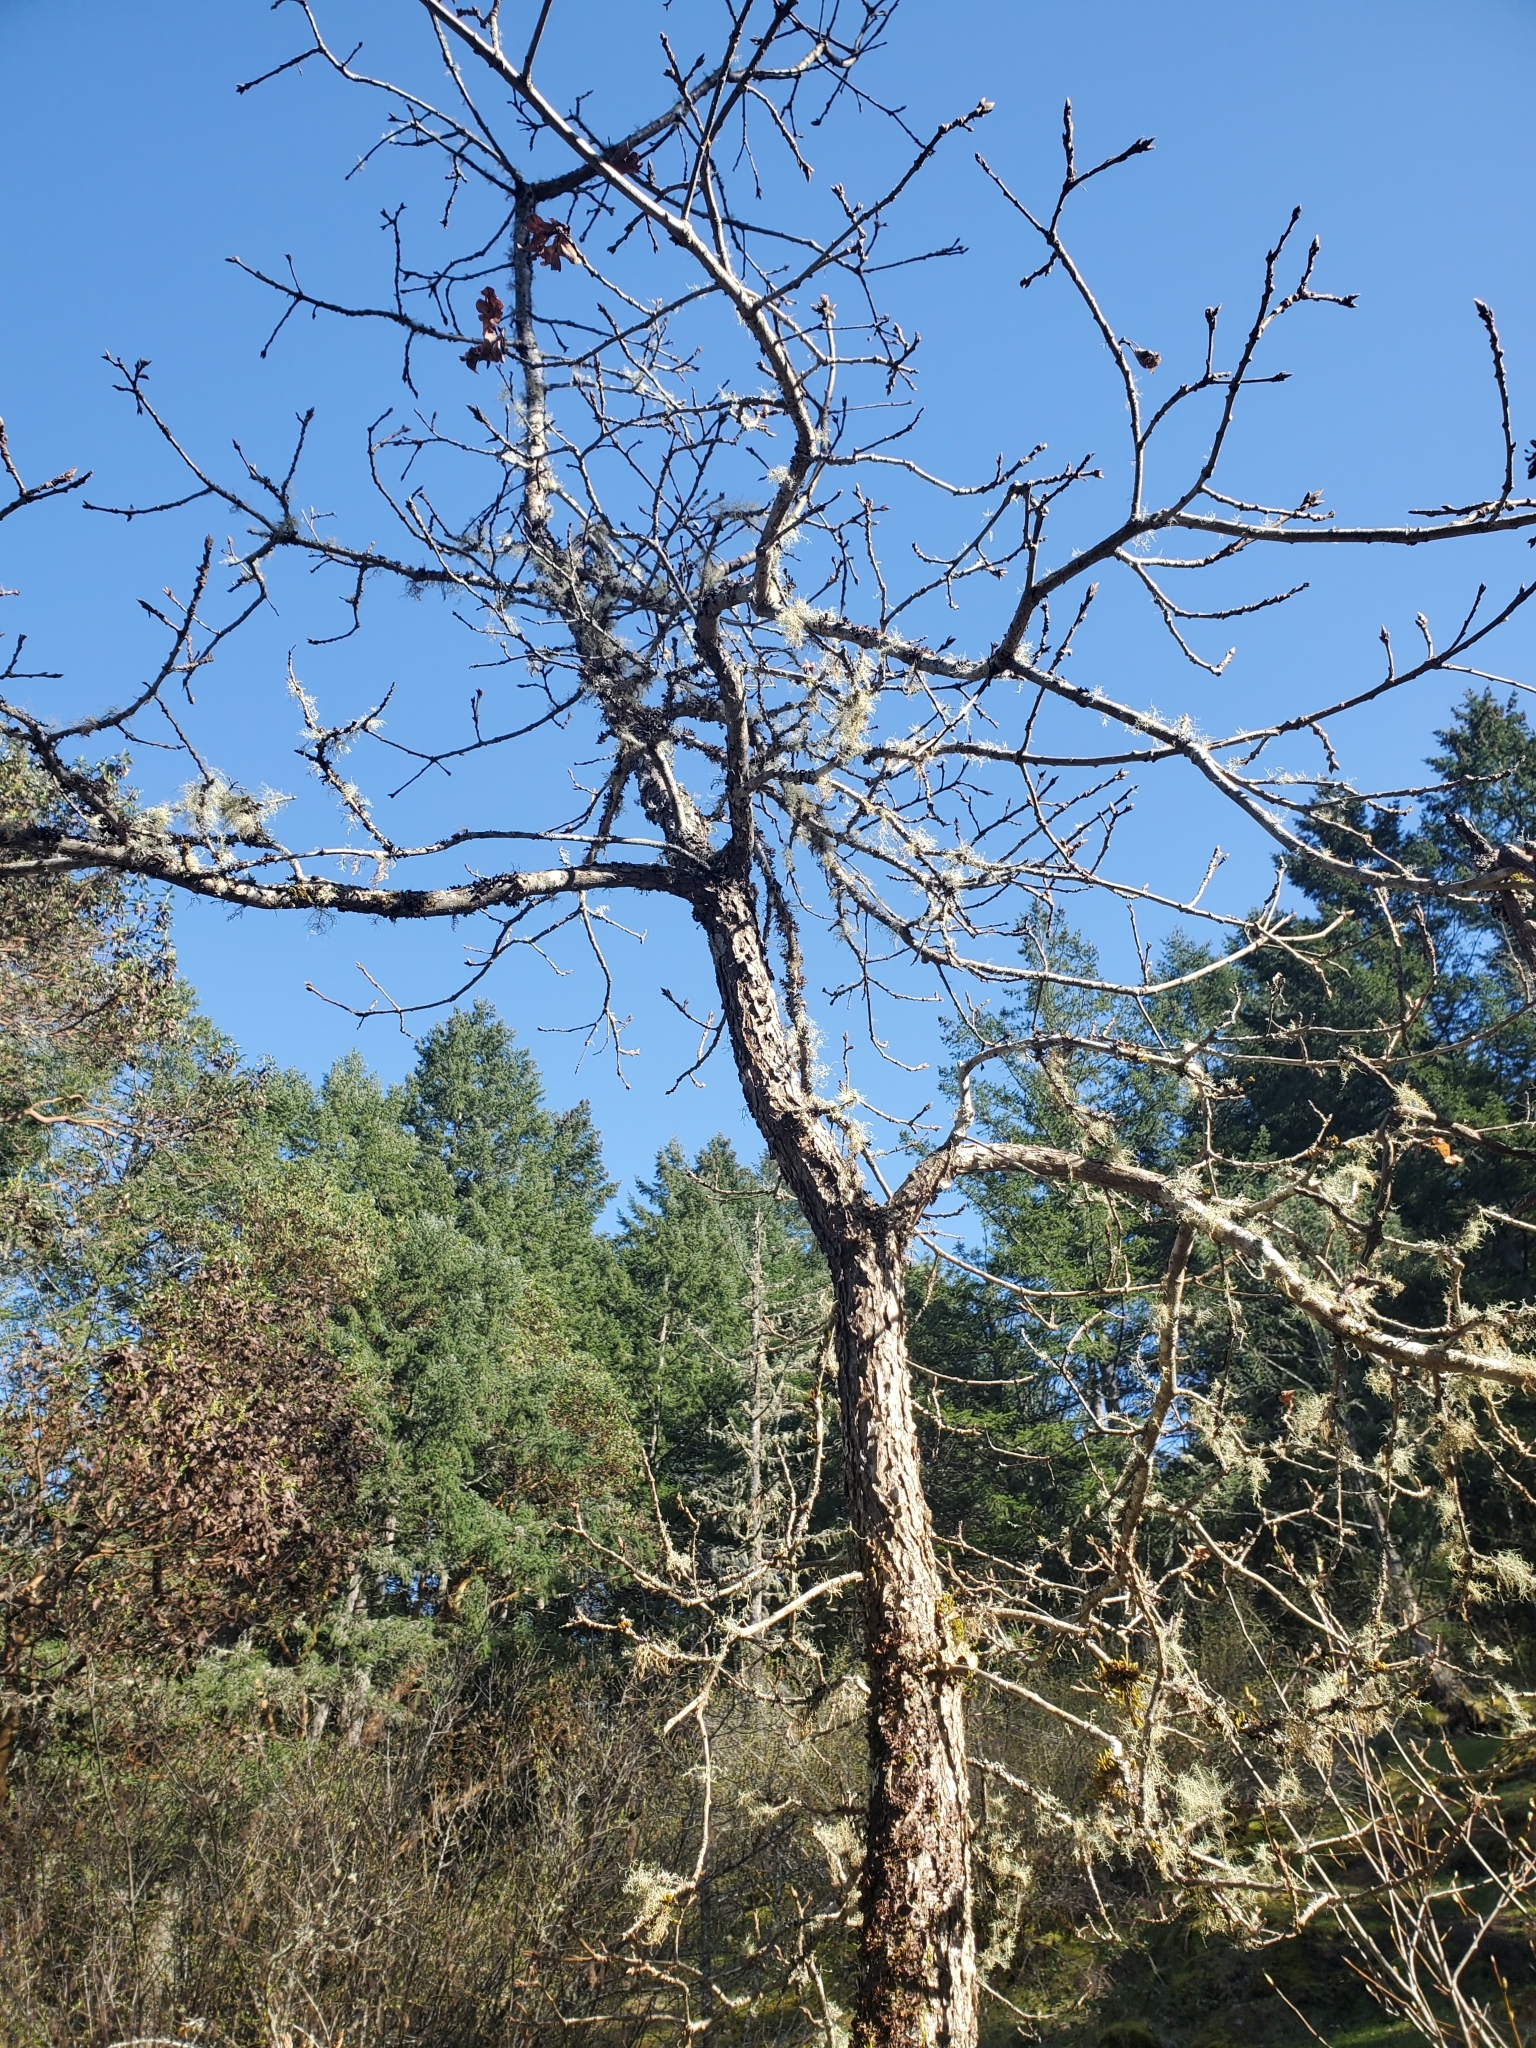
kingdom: Plantae
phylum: Tracheophyta
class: Magnoliopsida
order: Fagales
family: Fagaceae
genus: Quercus
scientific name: Quercus garryana
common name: Garry oak
